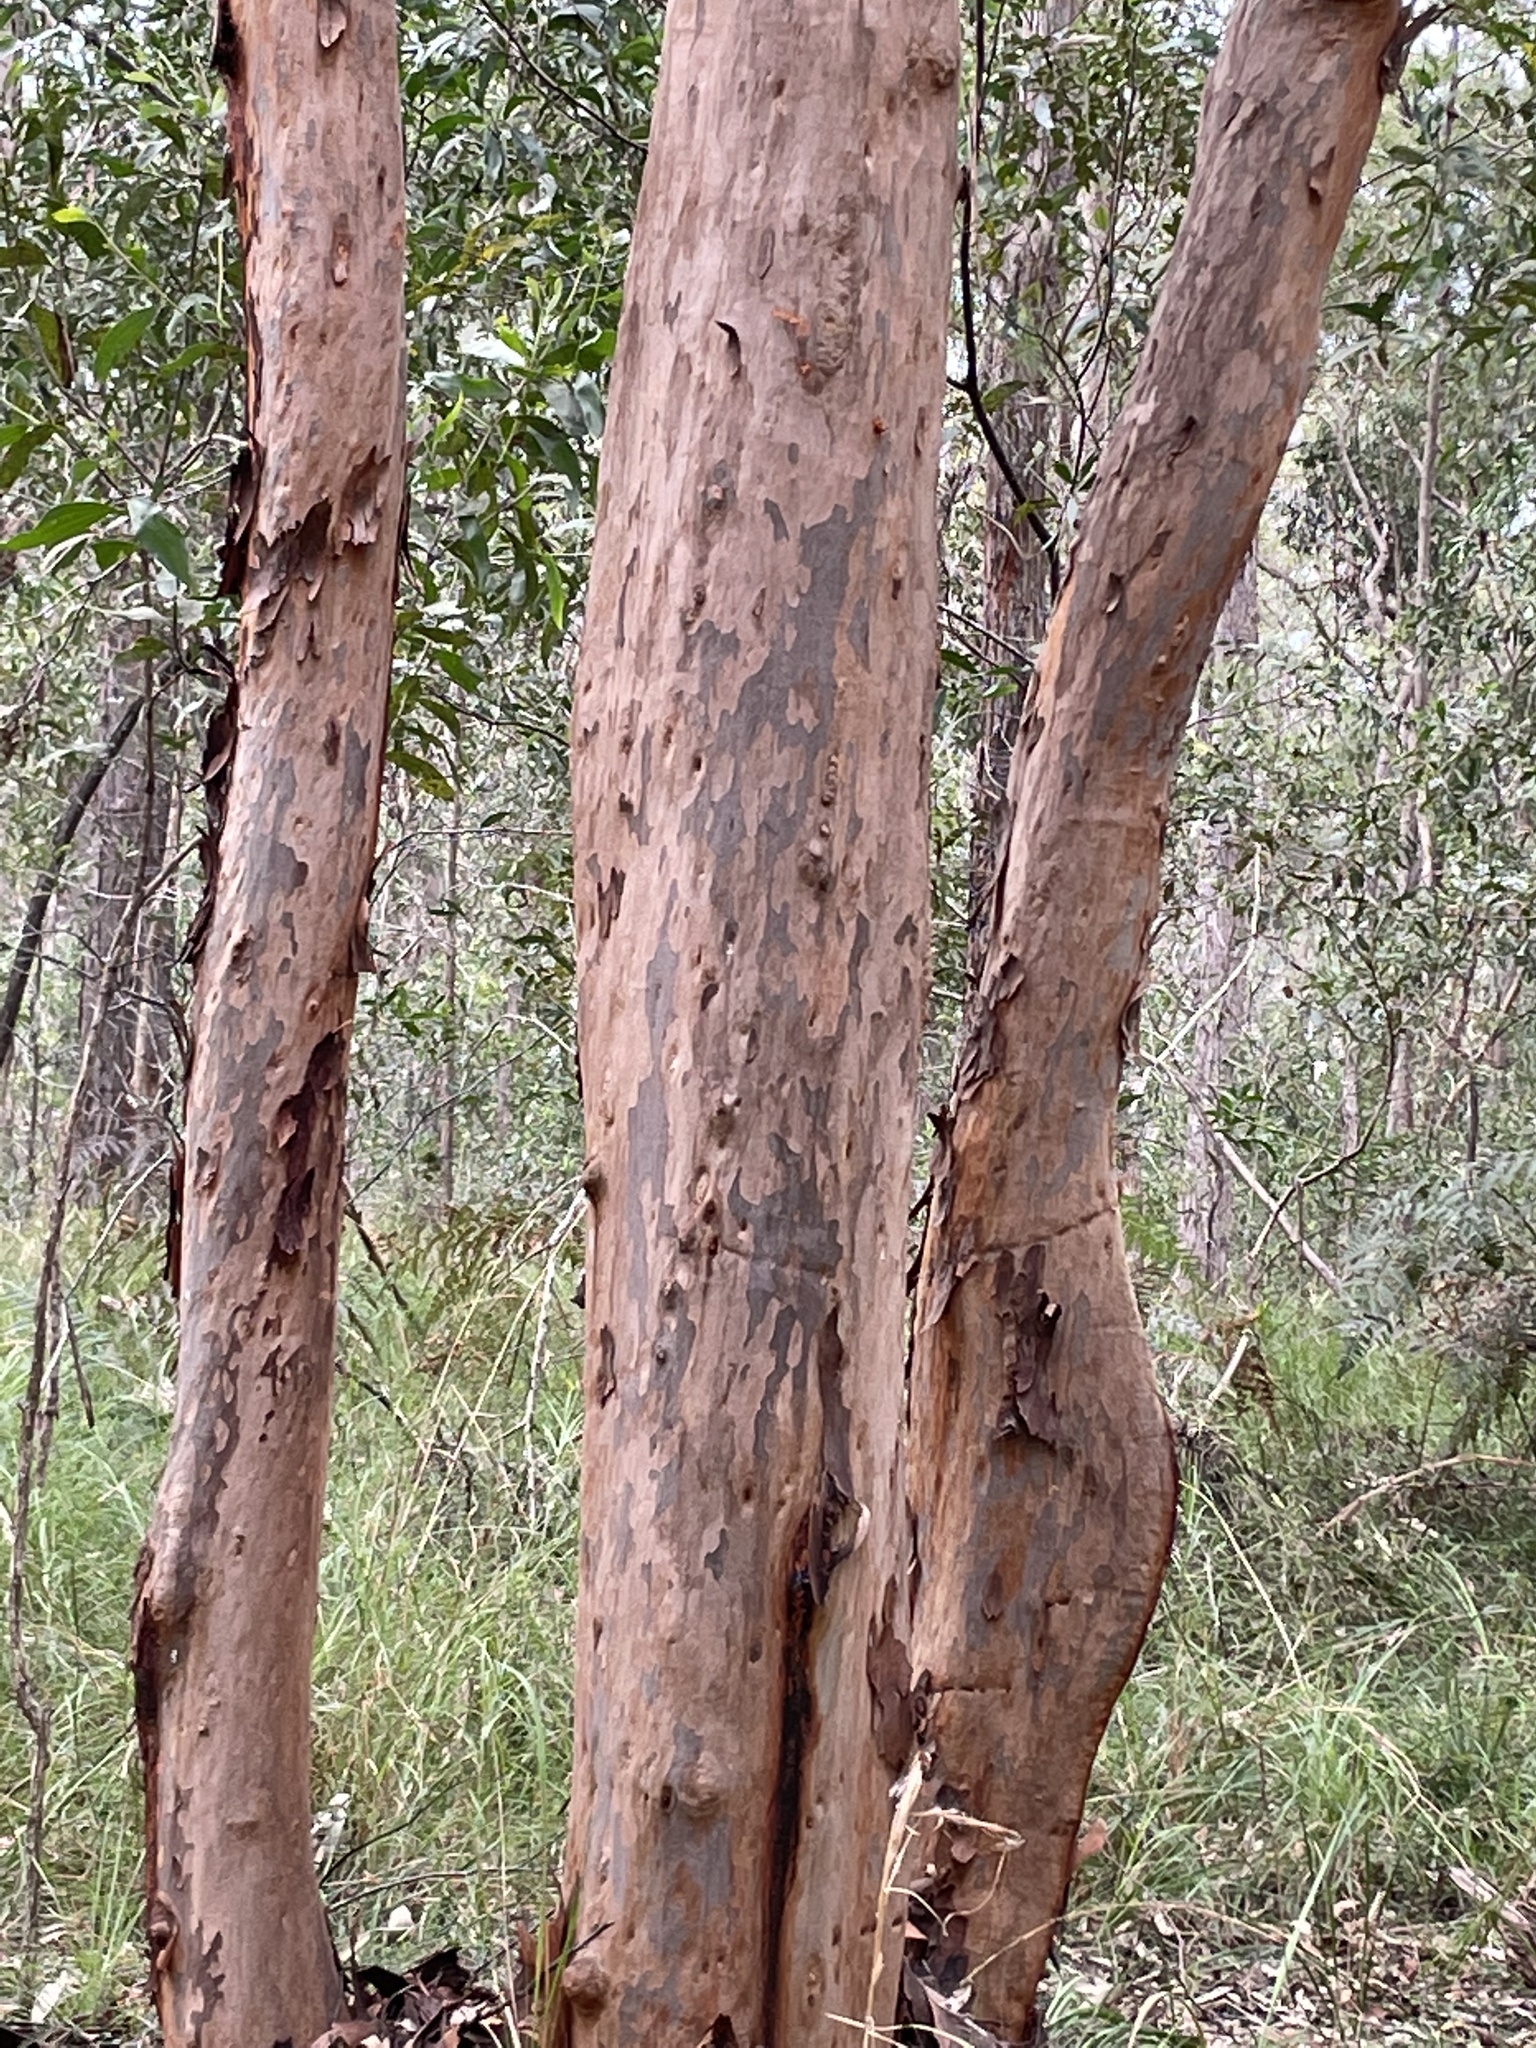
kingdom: Plantae
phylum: Tracheophyta
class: Magnoliopsida
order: Myrtales
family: Myrtaceae
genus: Angophora
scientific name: Angophora leiocarpa
